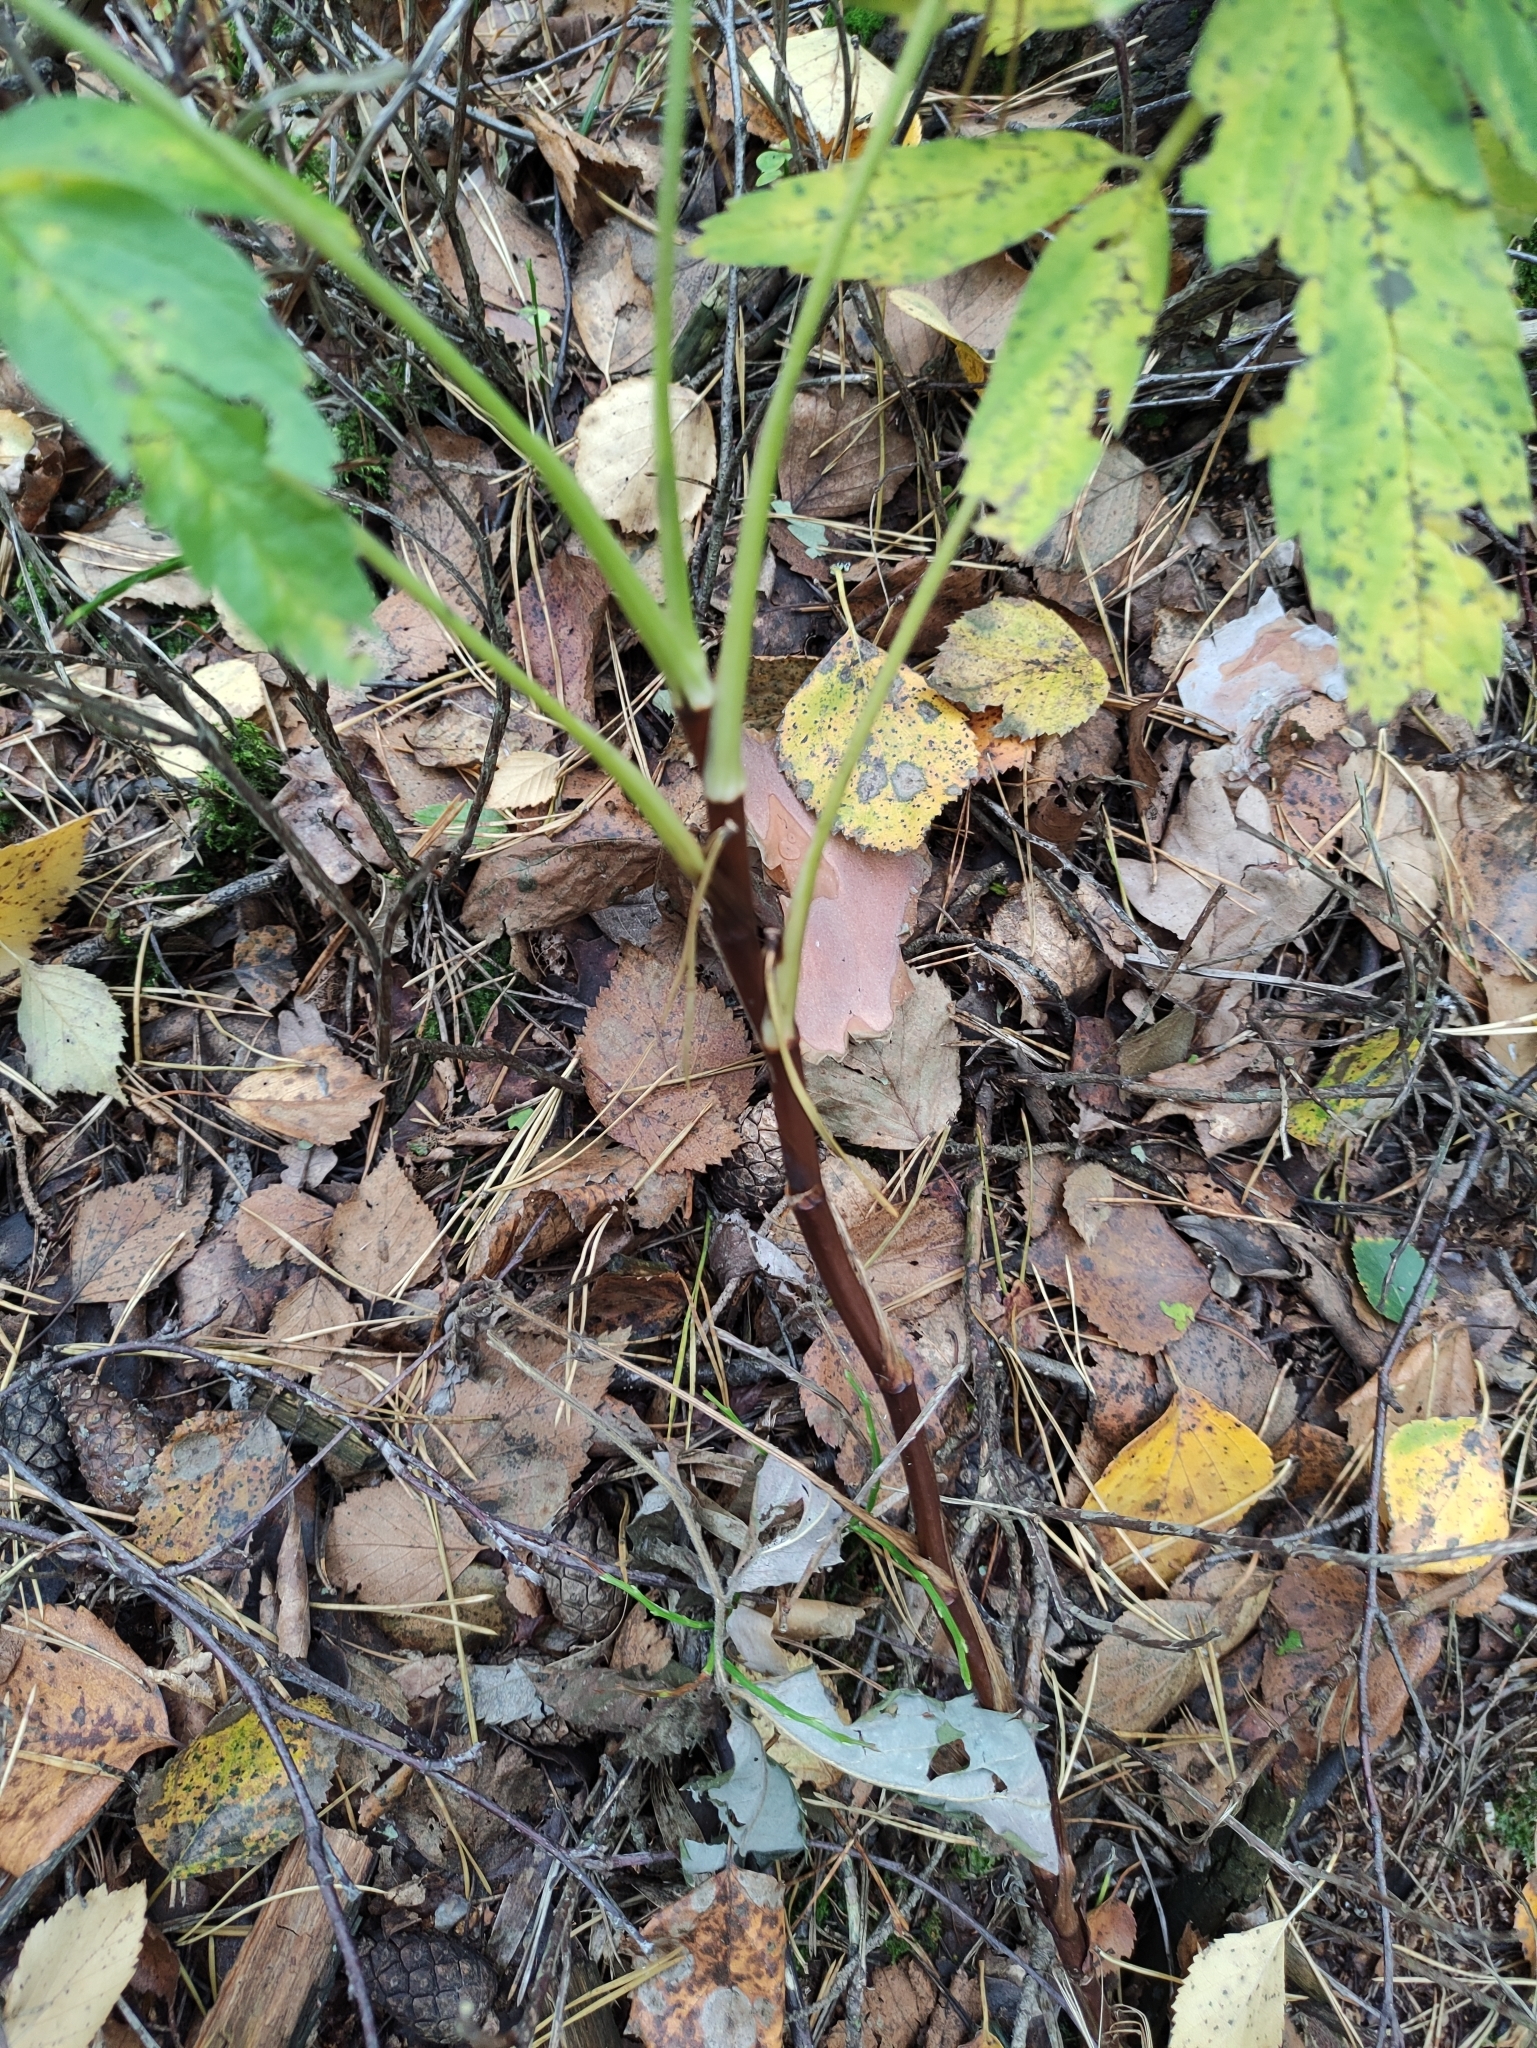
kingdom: Plantae
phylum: Tracheophyta
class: Magnoliopsida
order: Rosales
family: Rosaceae
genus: Comarum
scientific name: Comarum palustre
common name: Marsh cinquefoil
